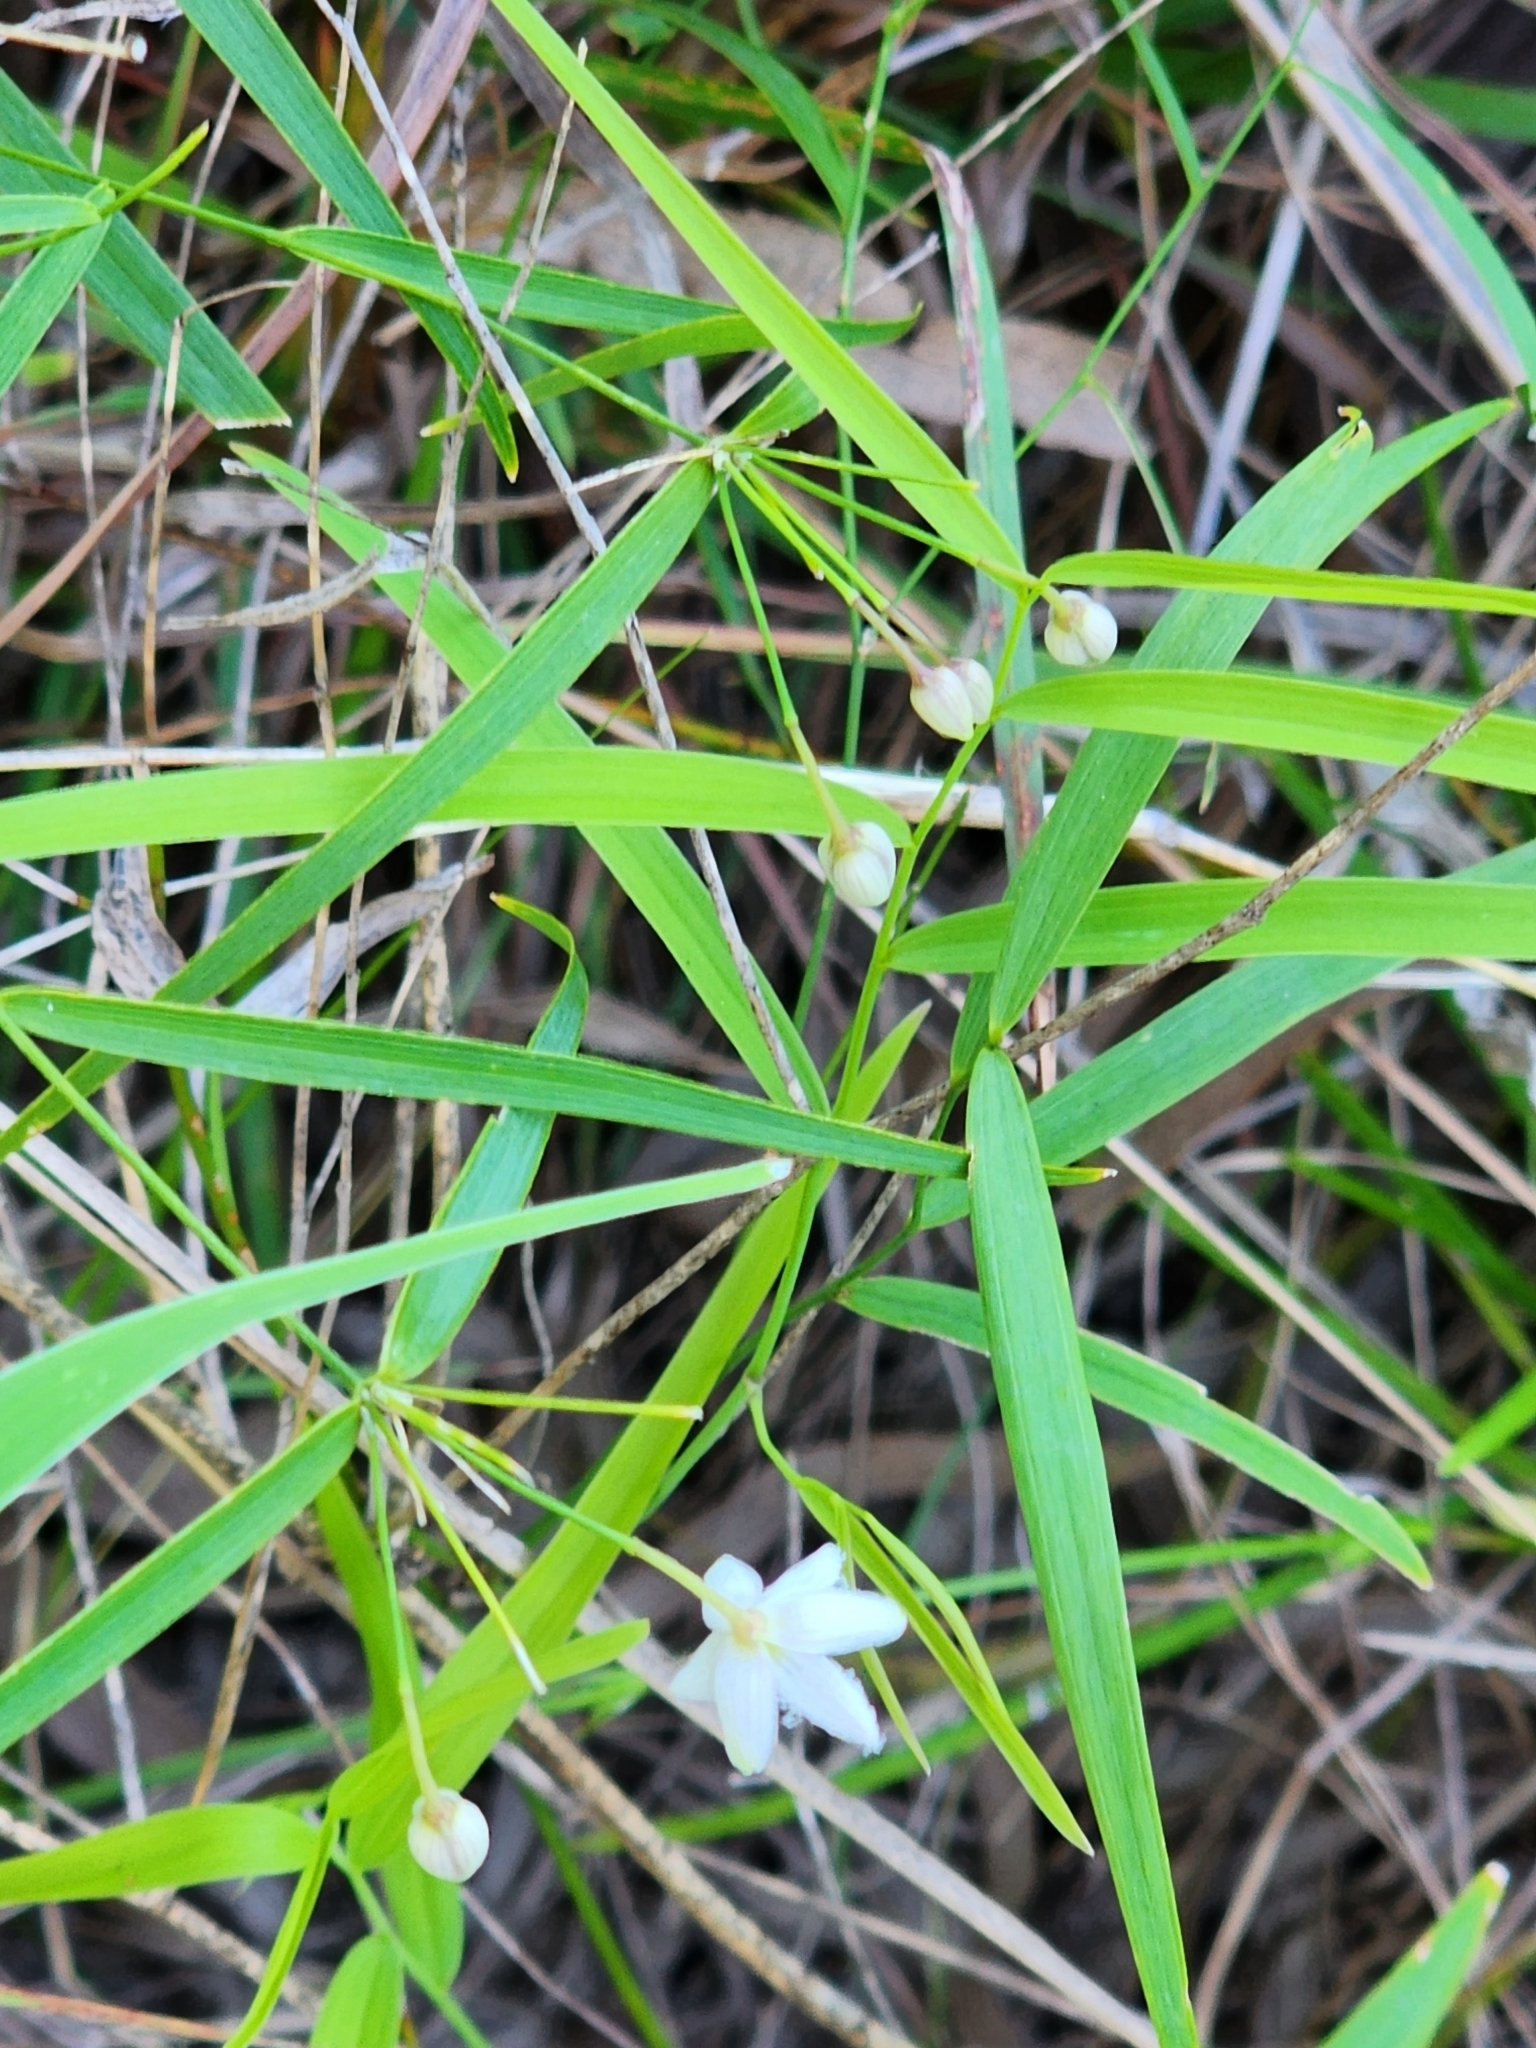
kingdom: Plantae
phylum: Tracheophyta
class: Liliopsida
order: Asparagales
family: Asparagaceae
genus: Eustrephus
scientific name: Eustrephus latifolius
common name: Orangevine
